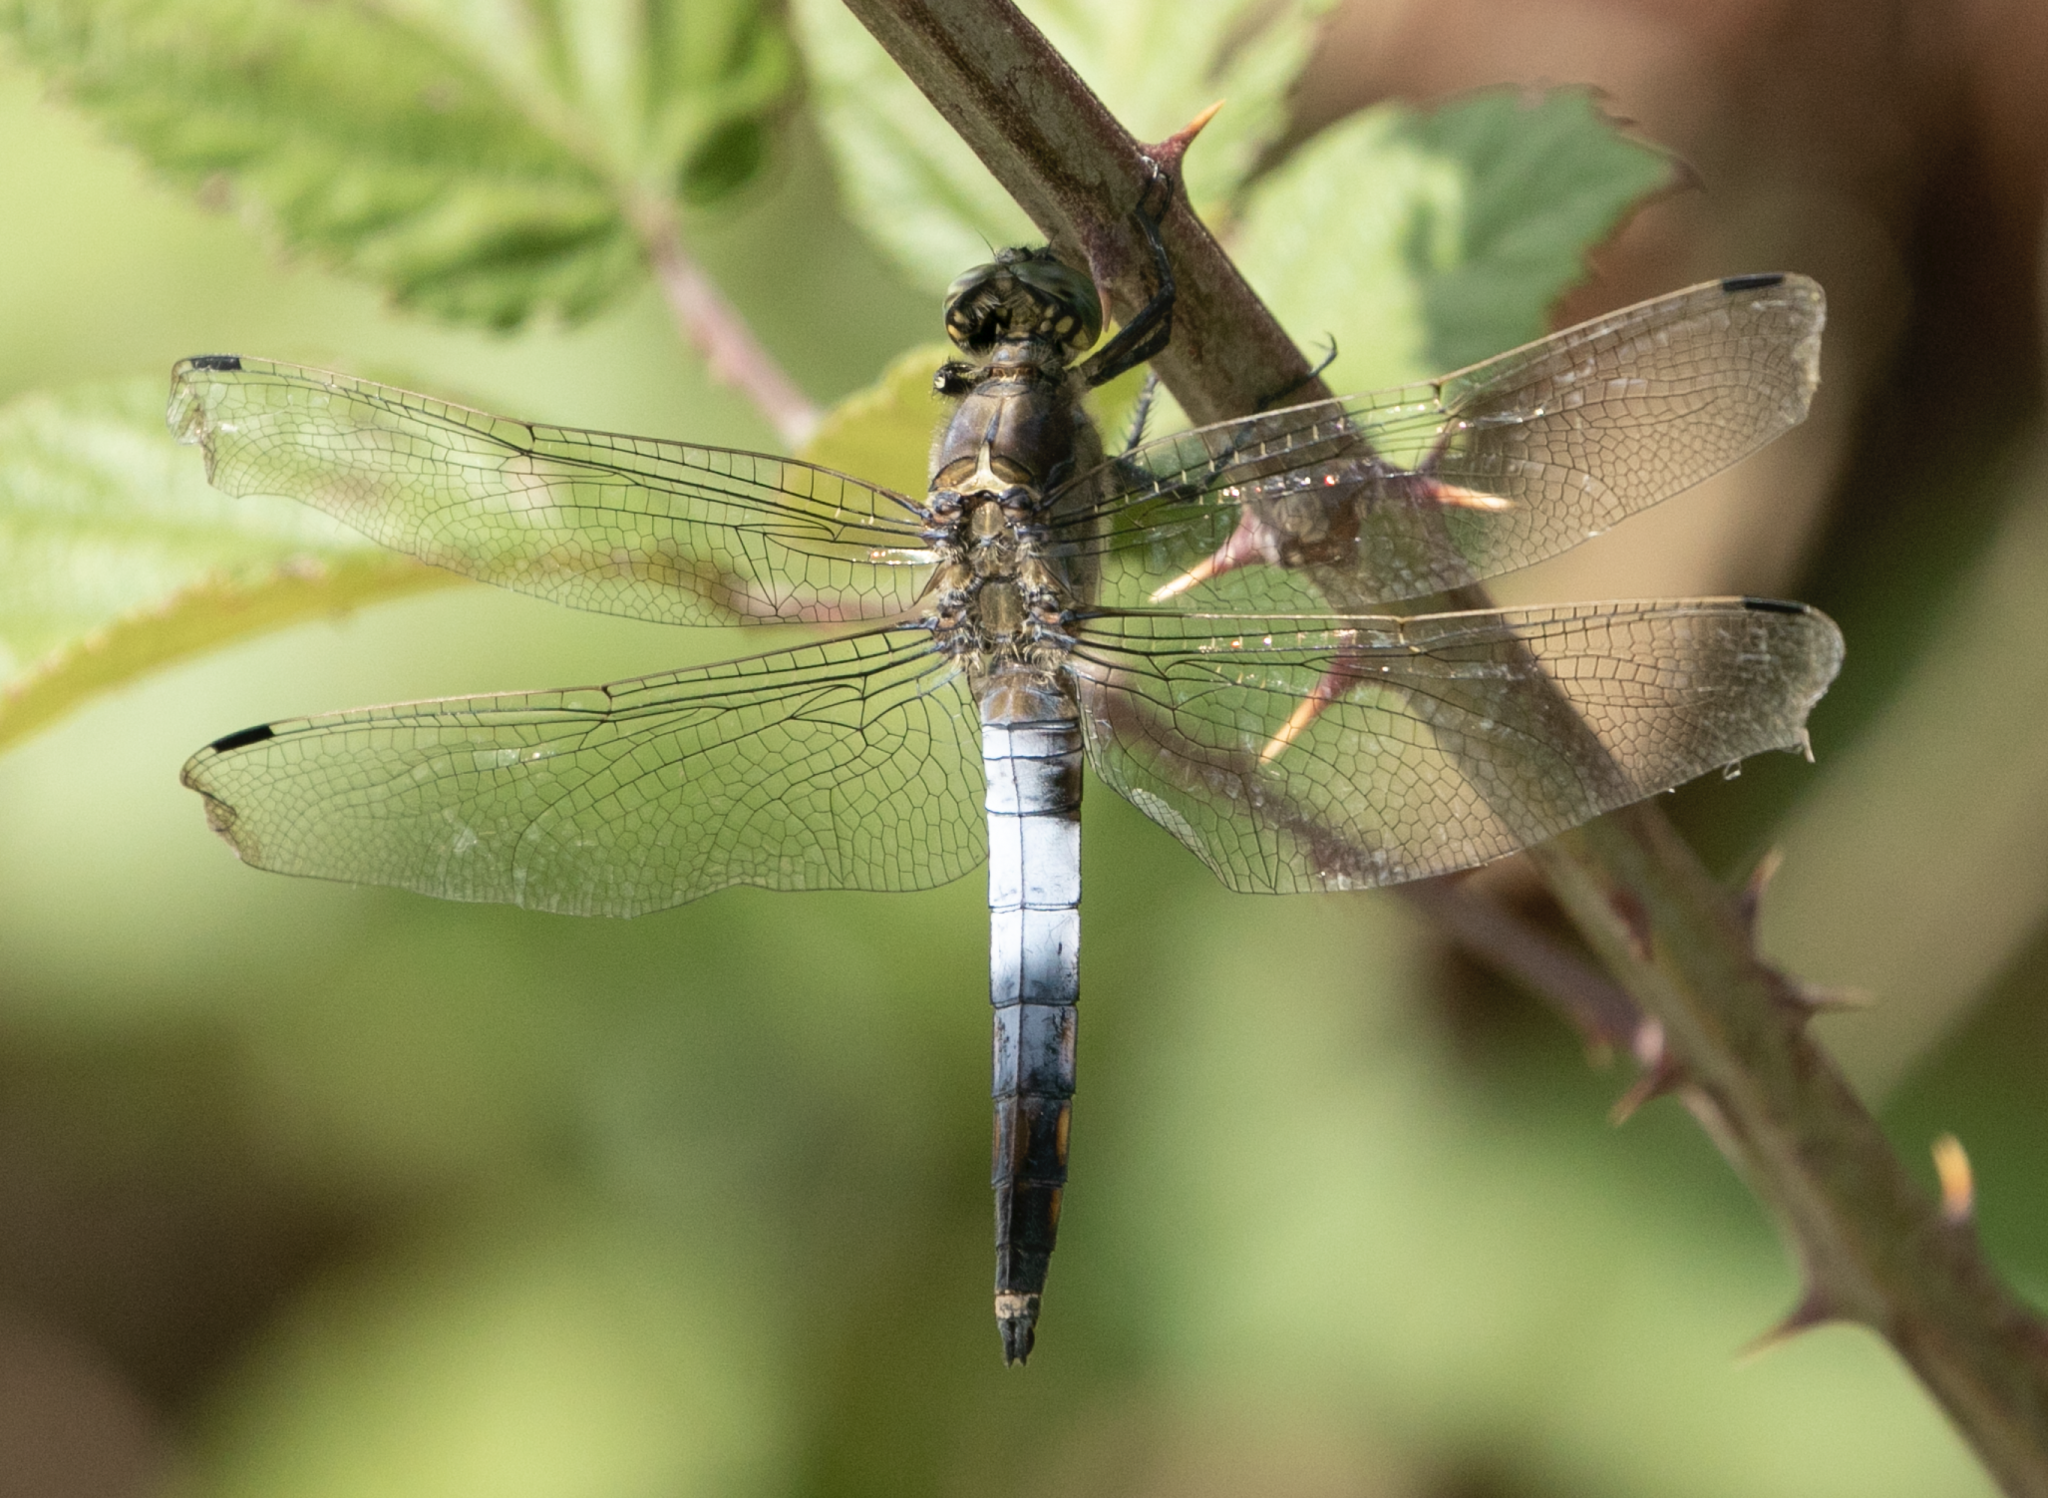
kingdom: Animalia
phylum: Arthropoda
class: Insecta
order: Odonata
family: Libellulidae
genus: Orthetrum
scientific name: Orthetrum cancellatum
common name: Black-tailed skimmer
